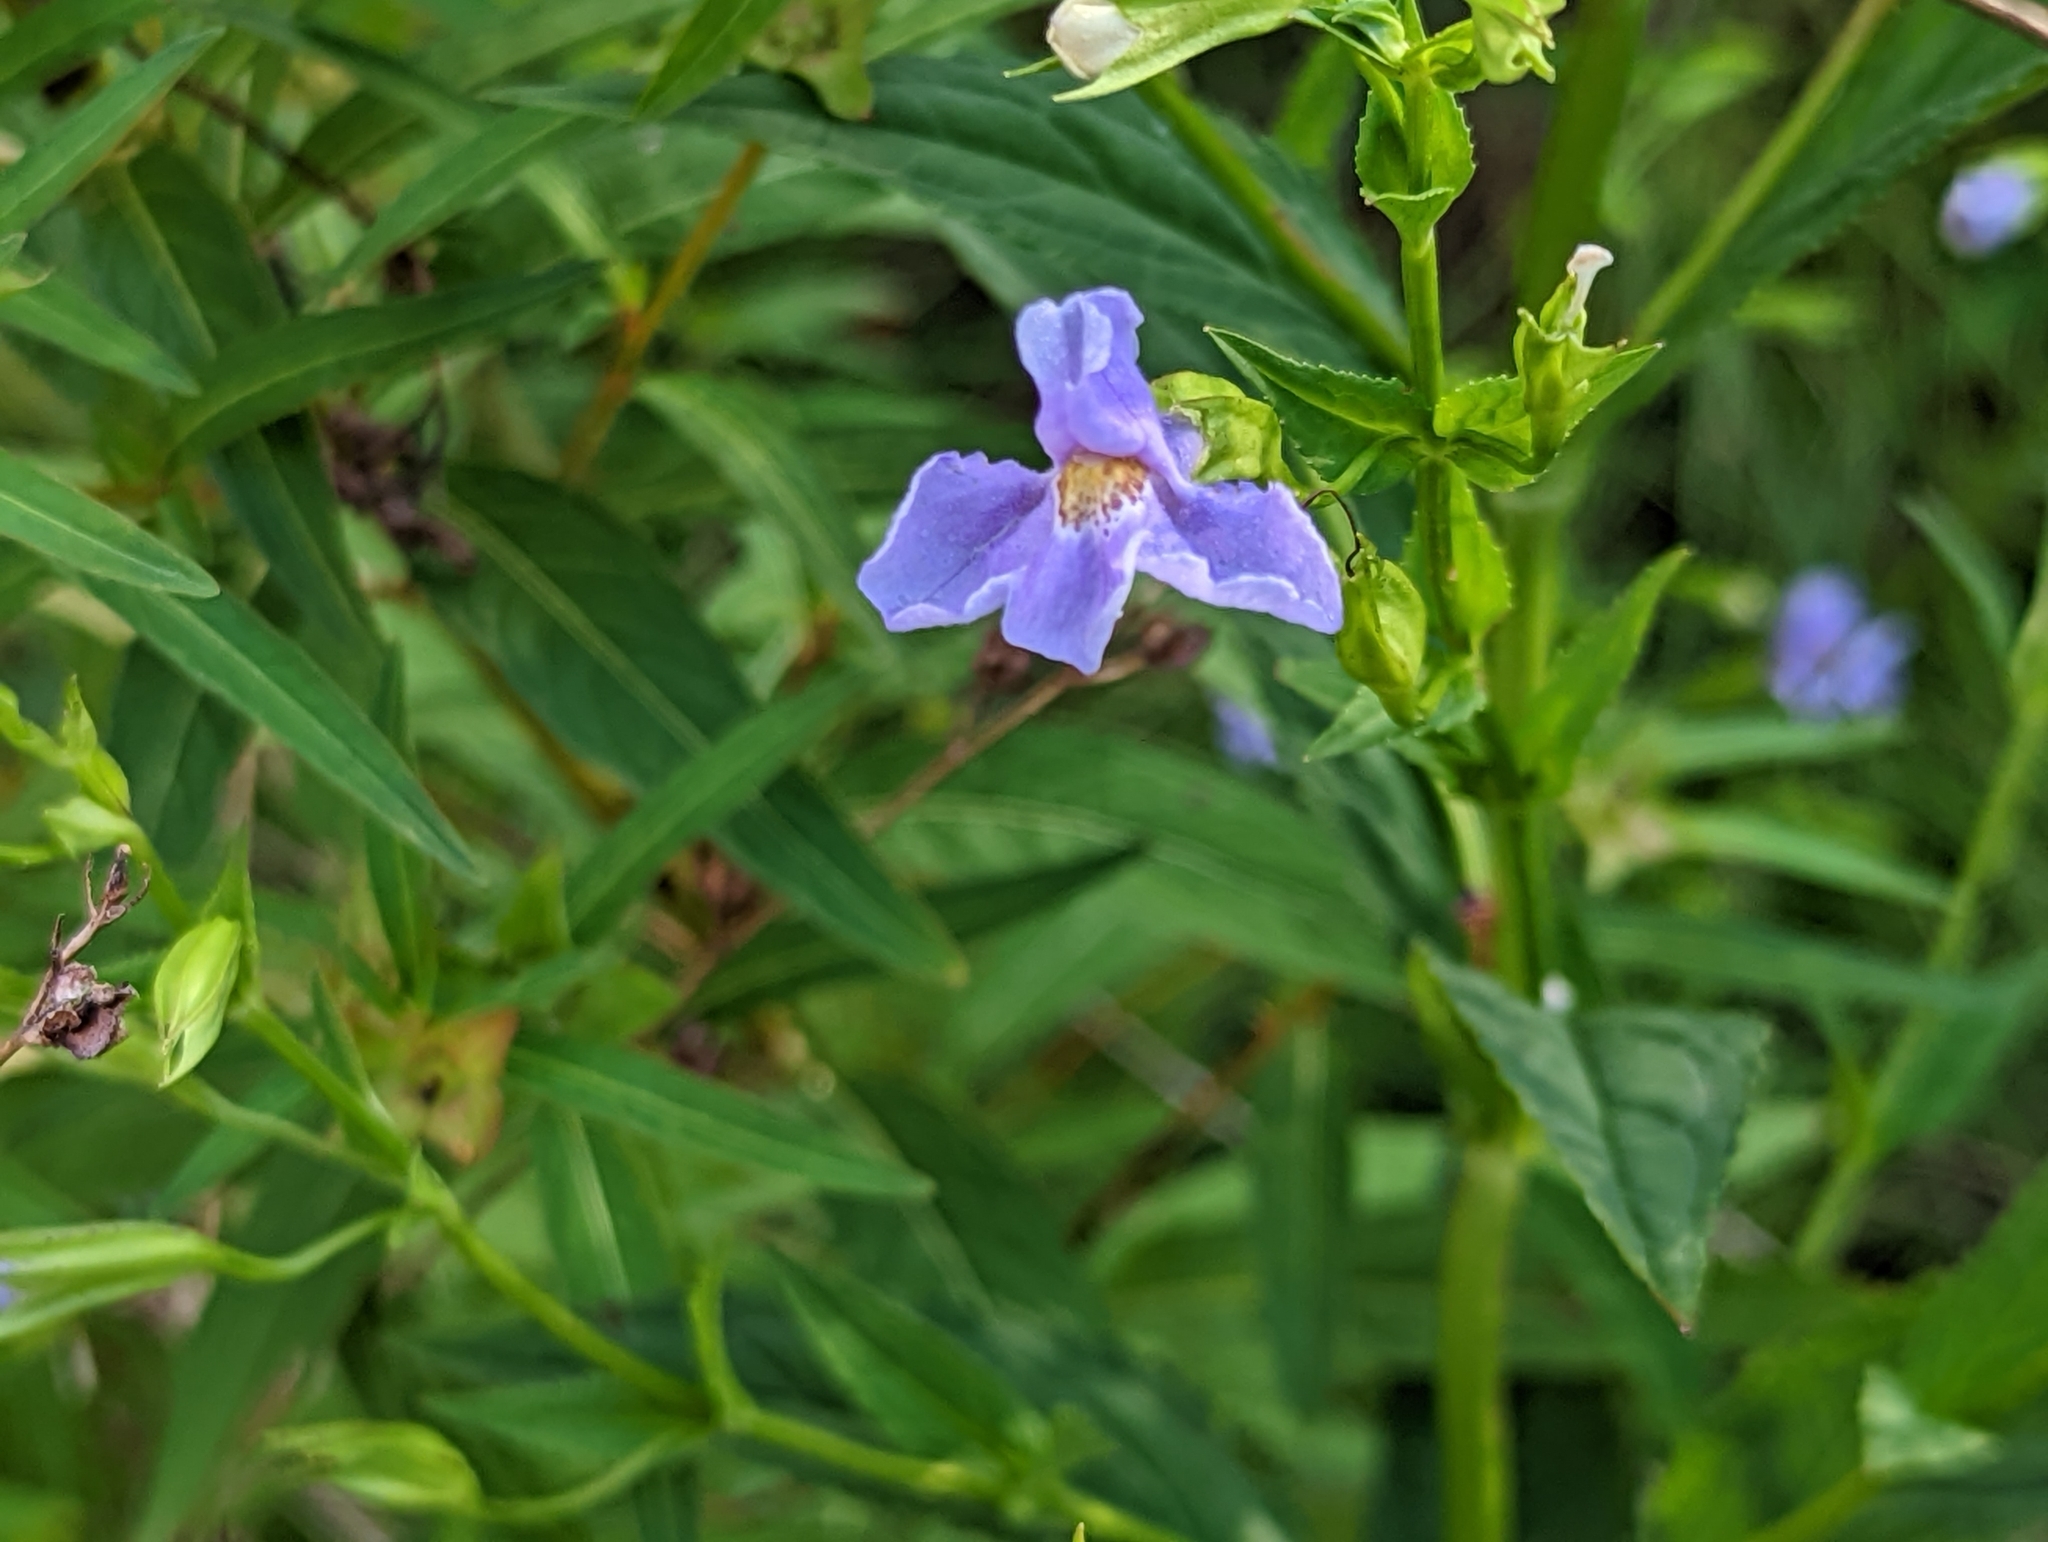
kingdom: Plantae
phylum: Tracheophyta
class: Magnoliopsida
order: Lamiales
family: Phrymaceae
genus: Mimulus
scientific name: Mimulus ringens
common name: Allegheny monkeyflower
